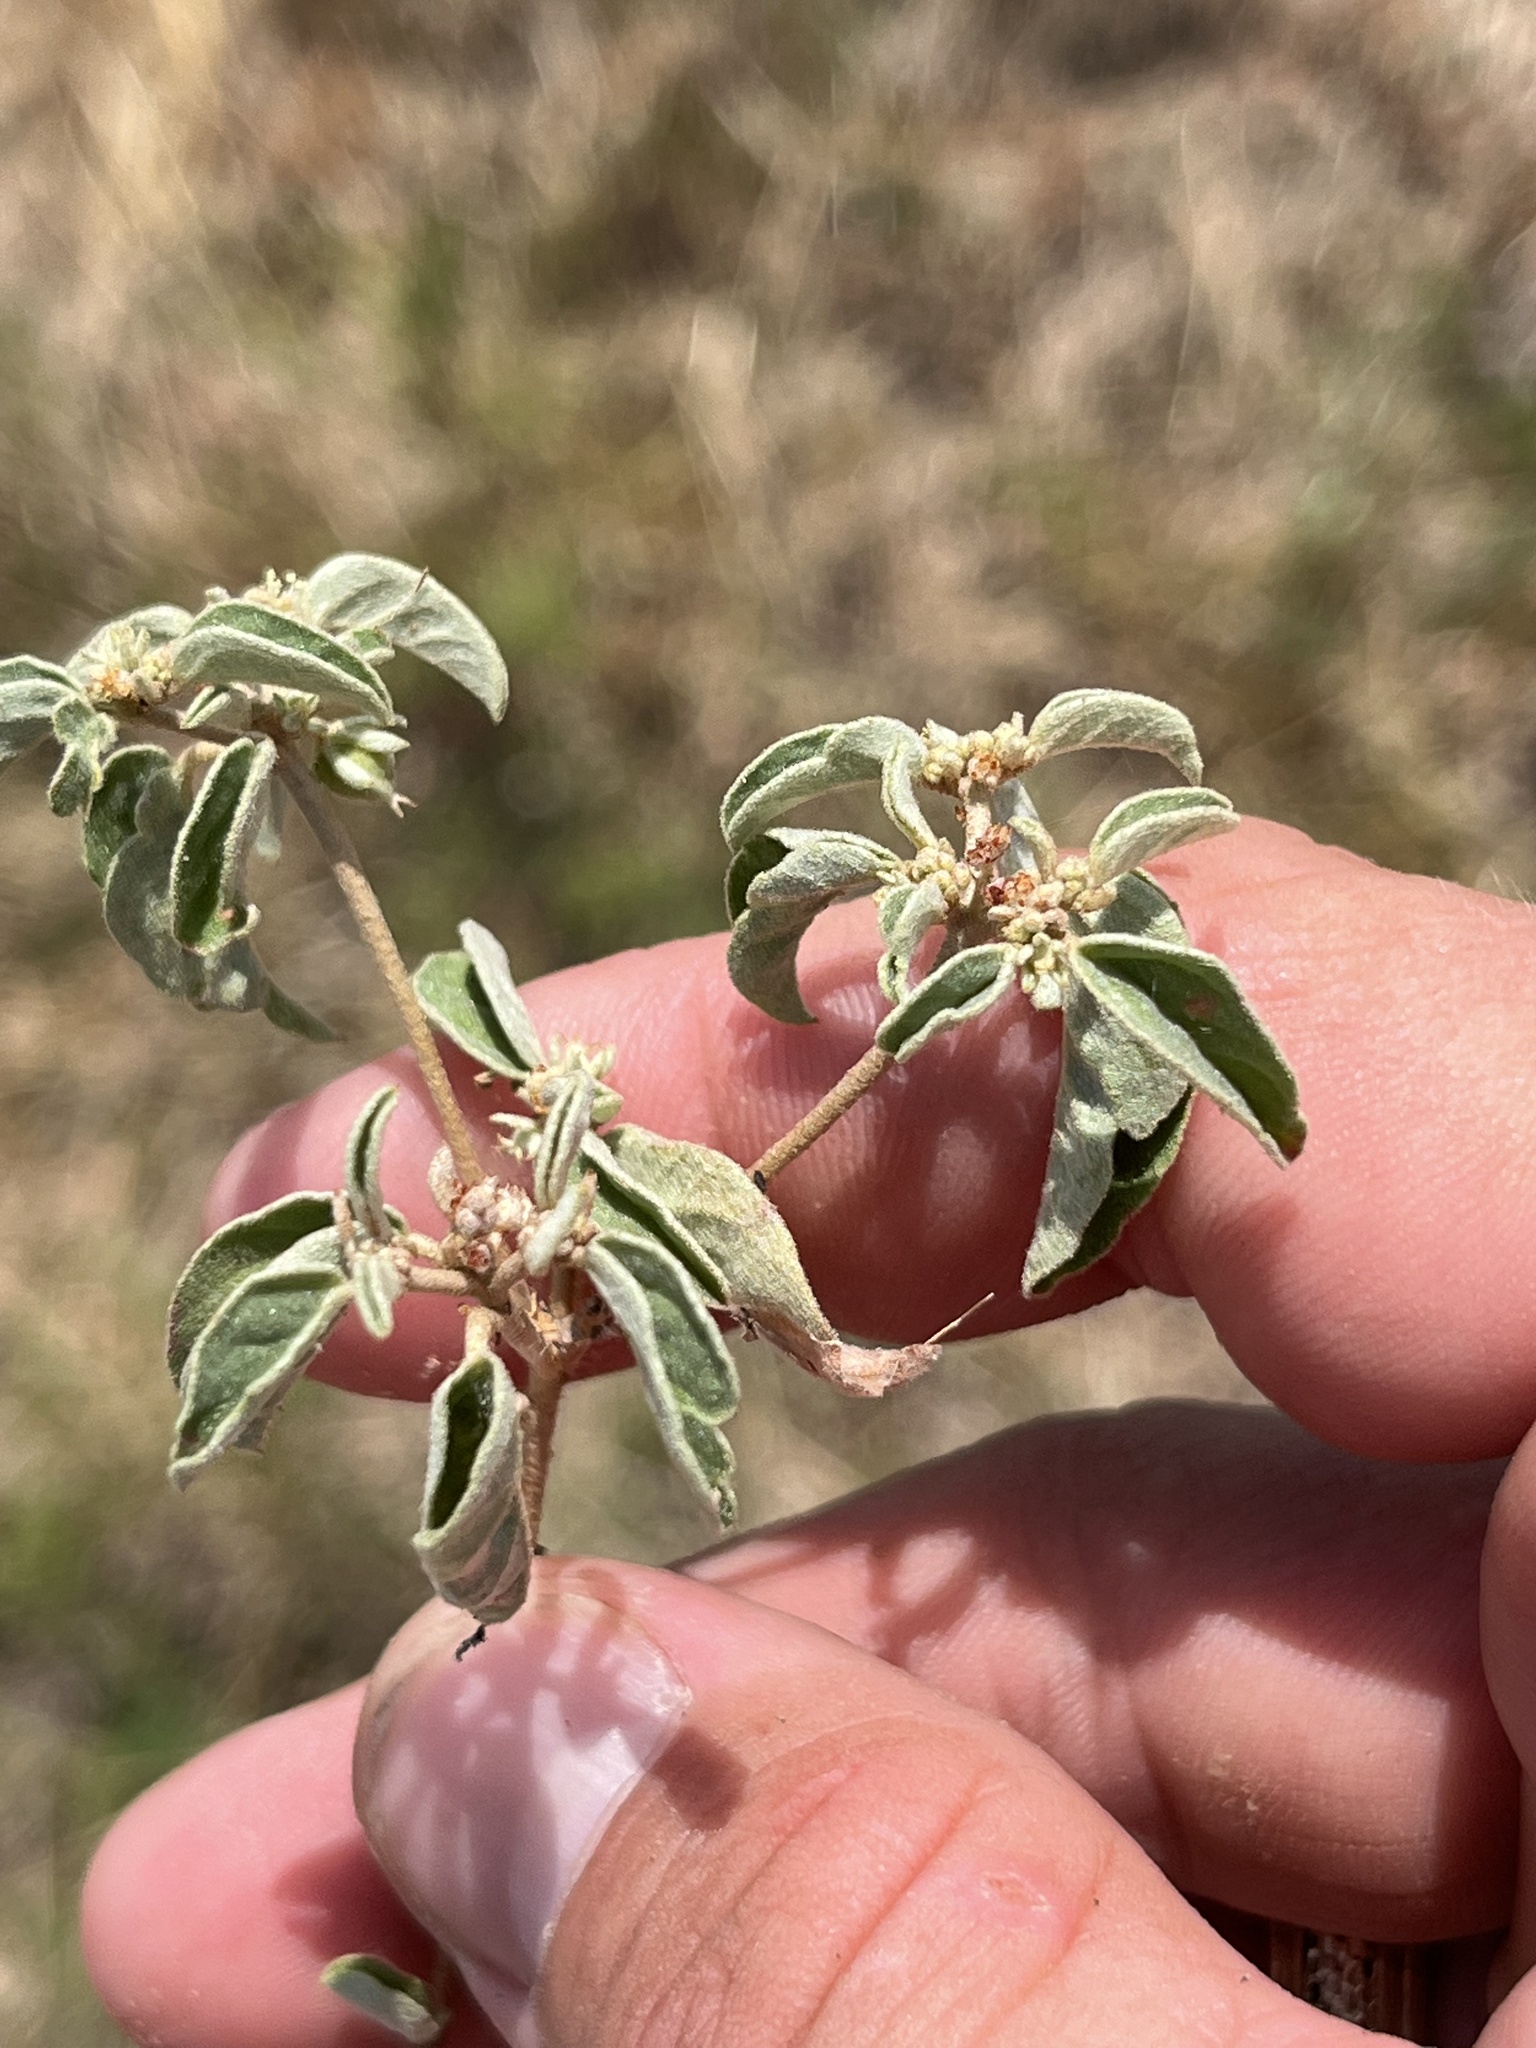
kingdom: Plantae
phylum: Tracheophyta
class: Magnoliopsida
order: Malpighiales
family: Euphorbiaceae
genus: Croton
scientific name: Croton monanthogynus
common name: One-seed croton
